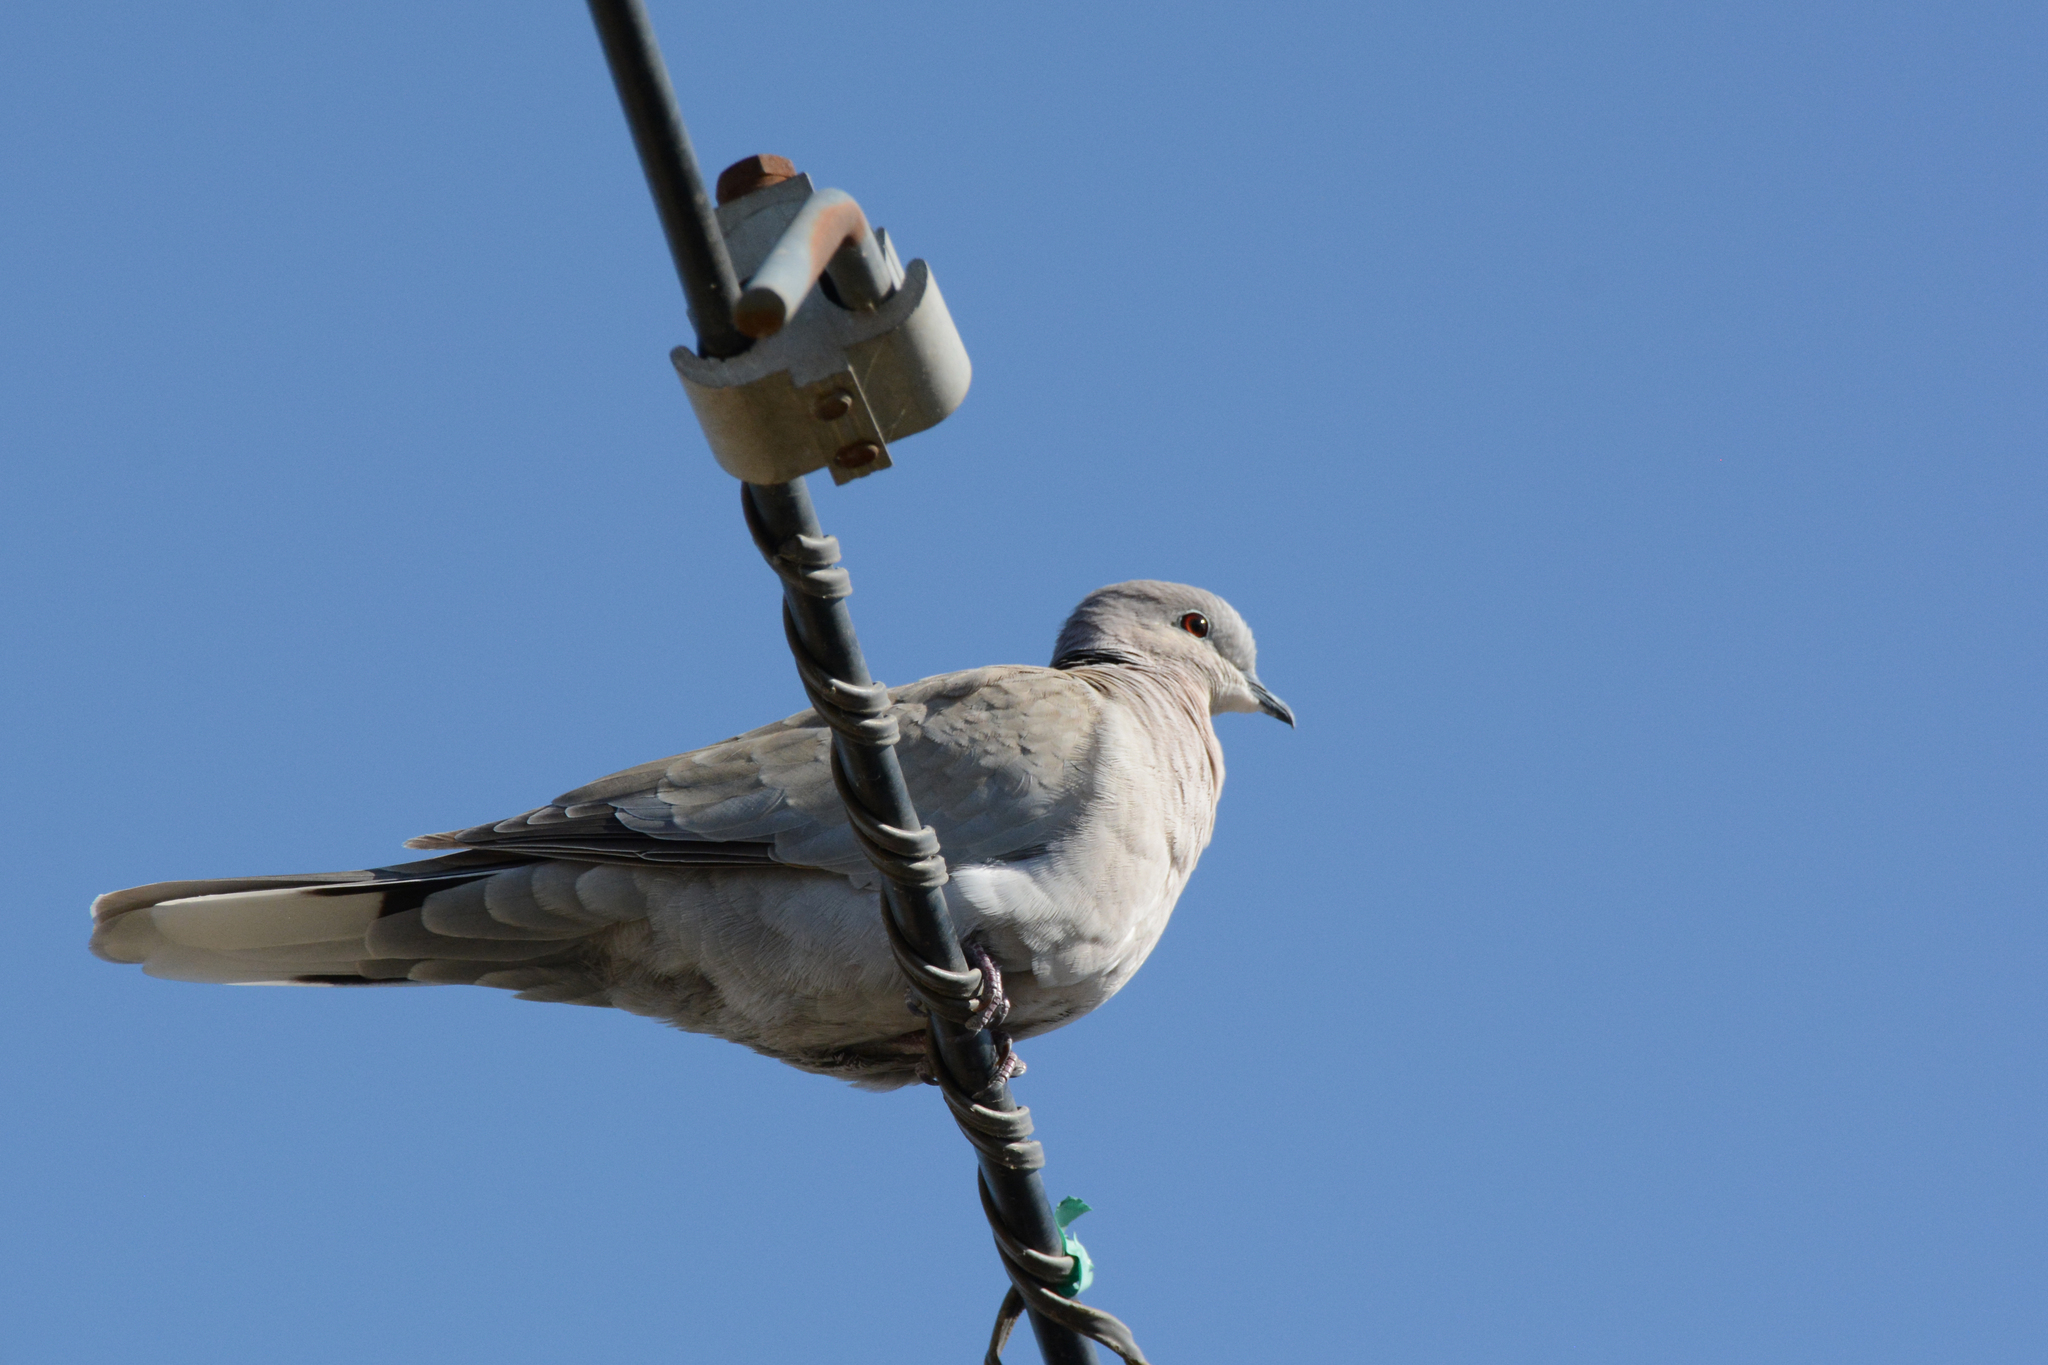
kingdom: Animalia
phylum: Chordata
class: Aves
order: Columbiformes
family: Columbidae
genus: Streptopelia
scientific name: Streptopelia decaocto
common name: Eurasian collared dove
